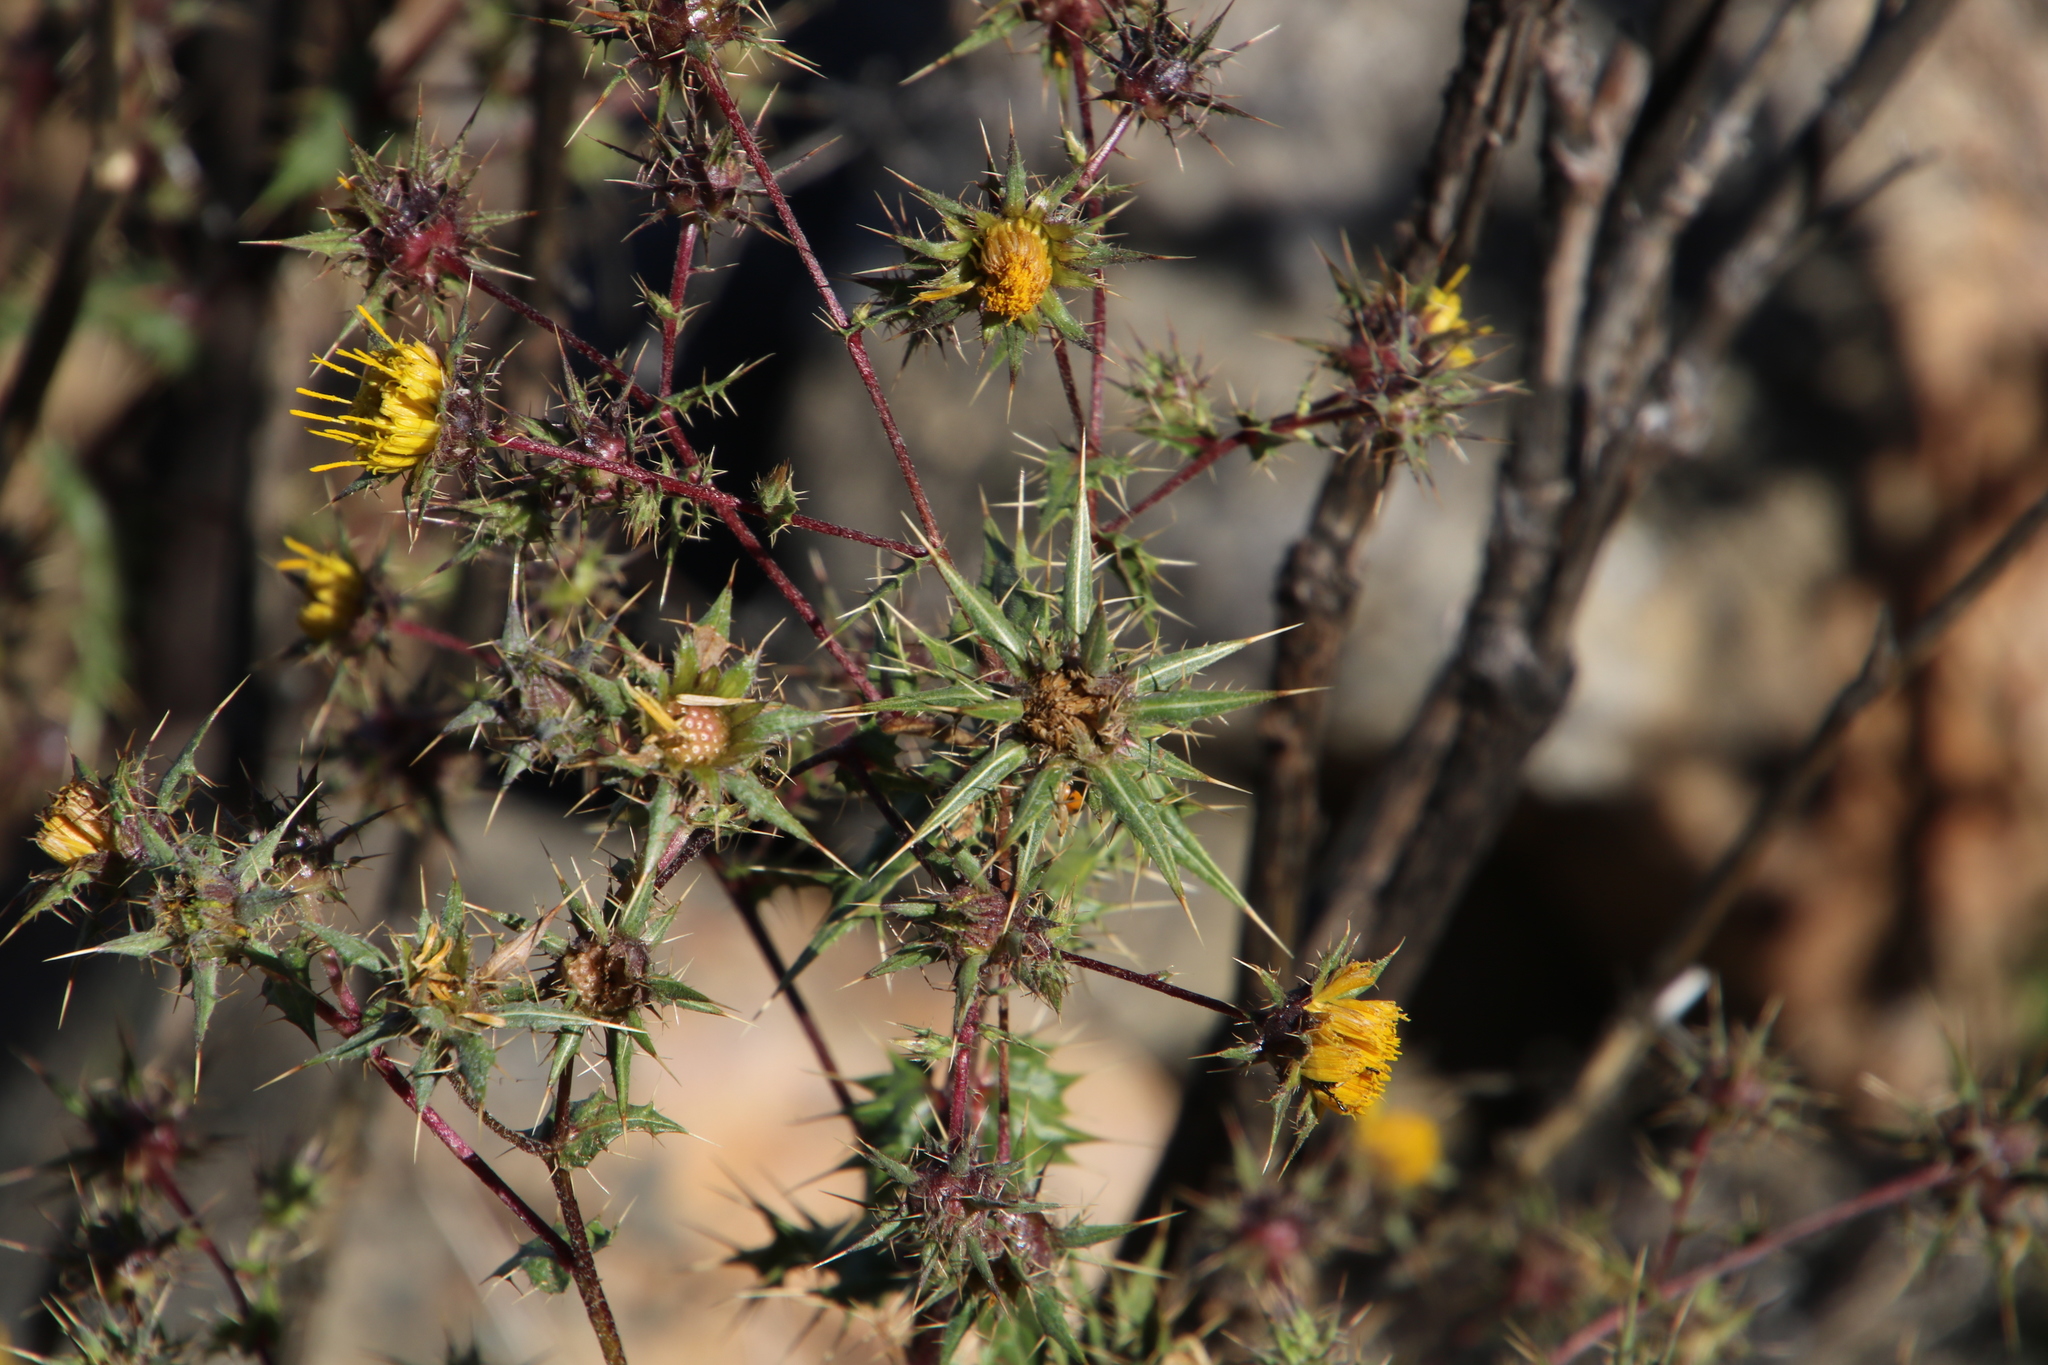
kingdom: Plantae
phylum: Tracheophyta
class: Magnoliopsida
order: Asterales
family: Asteraceae
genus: Berkheya
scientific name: Berkheya onobromoides
